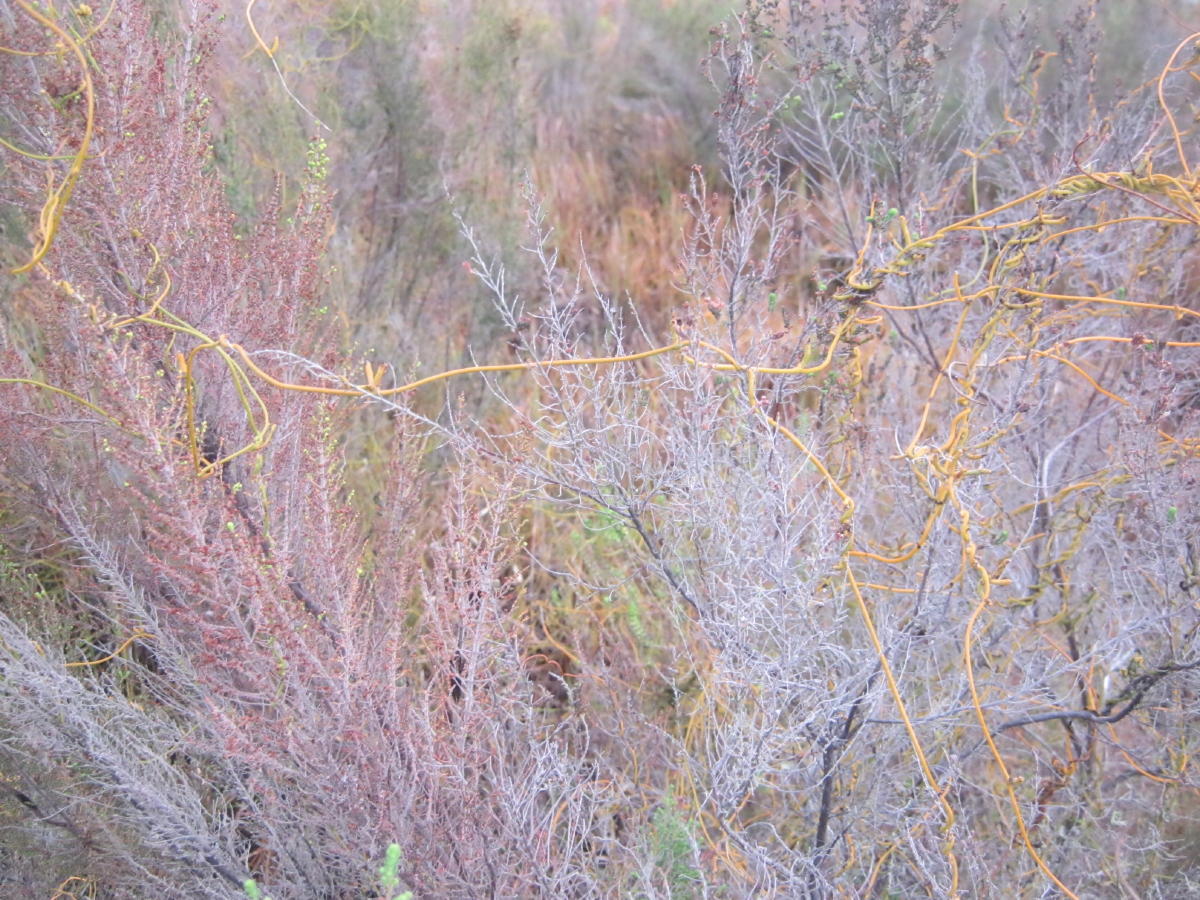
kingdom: Plantae
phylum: Tracheophyta
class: Magnoliopsida
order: Laurales
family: Lauraceae
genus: Cassytha
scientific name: Cassytha ciliolata
